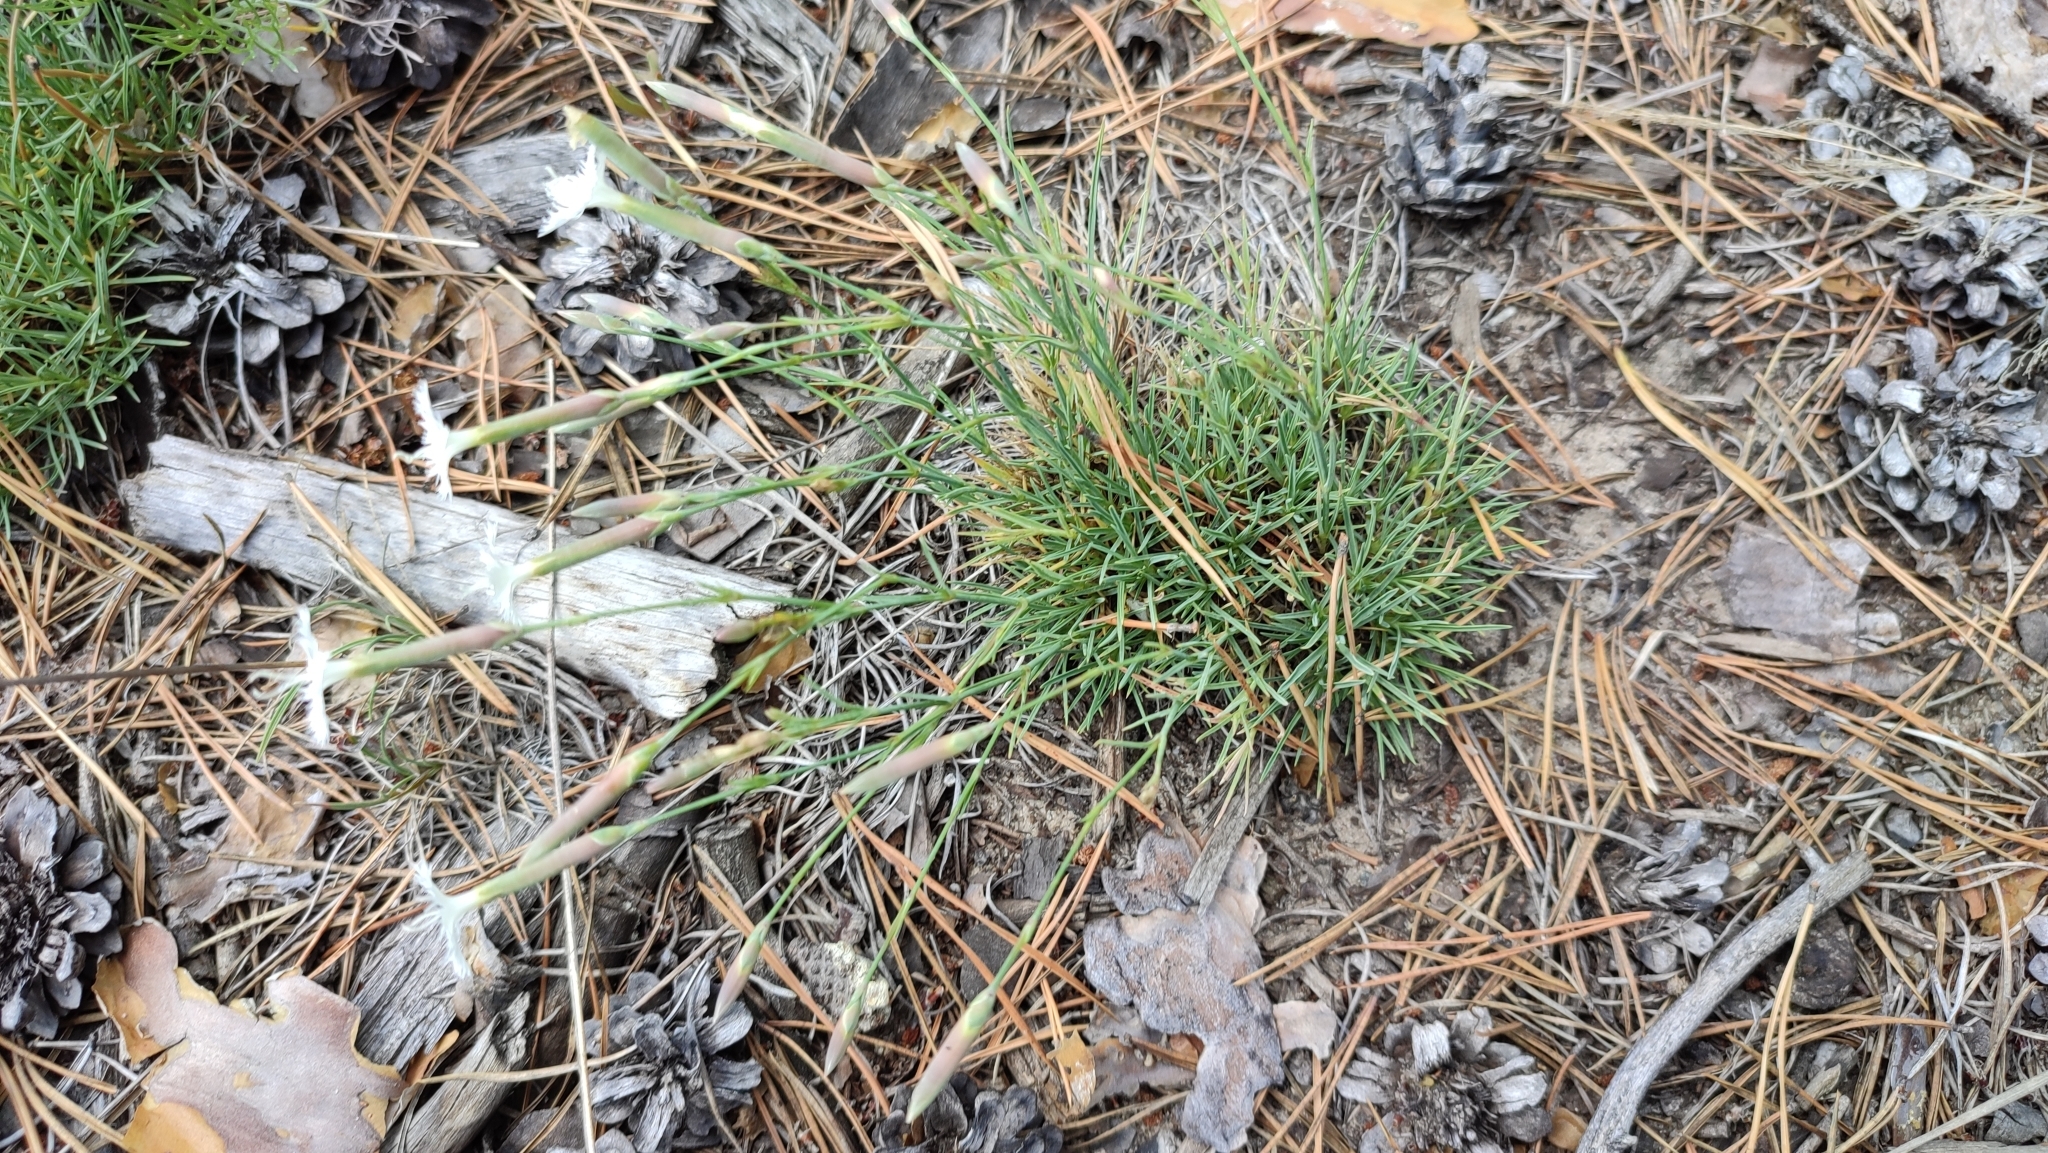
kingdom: Plantae
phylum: Tracheophyta
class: Magnoliopsida
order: Caryophyllales
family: Caryophyllaceae
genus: Dianthus
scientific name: Dianthus arenarius
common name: Stone pink
